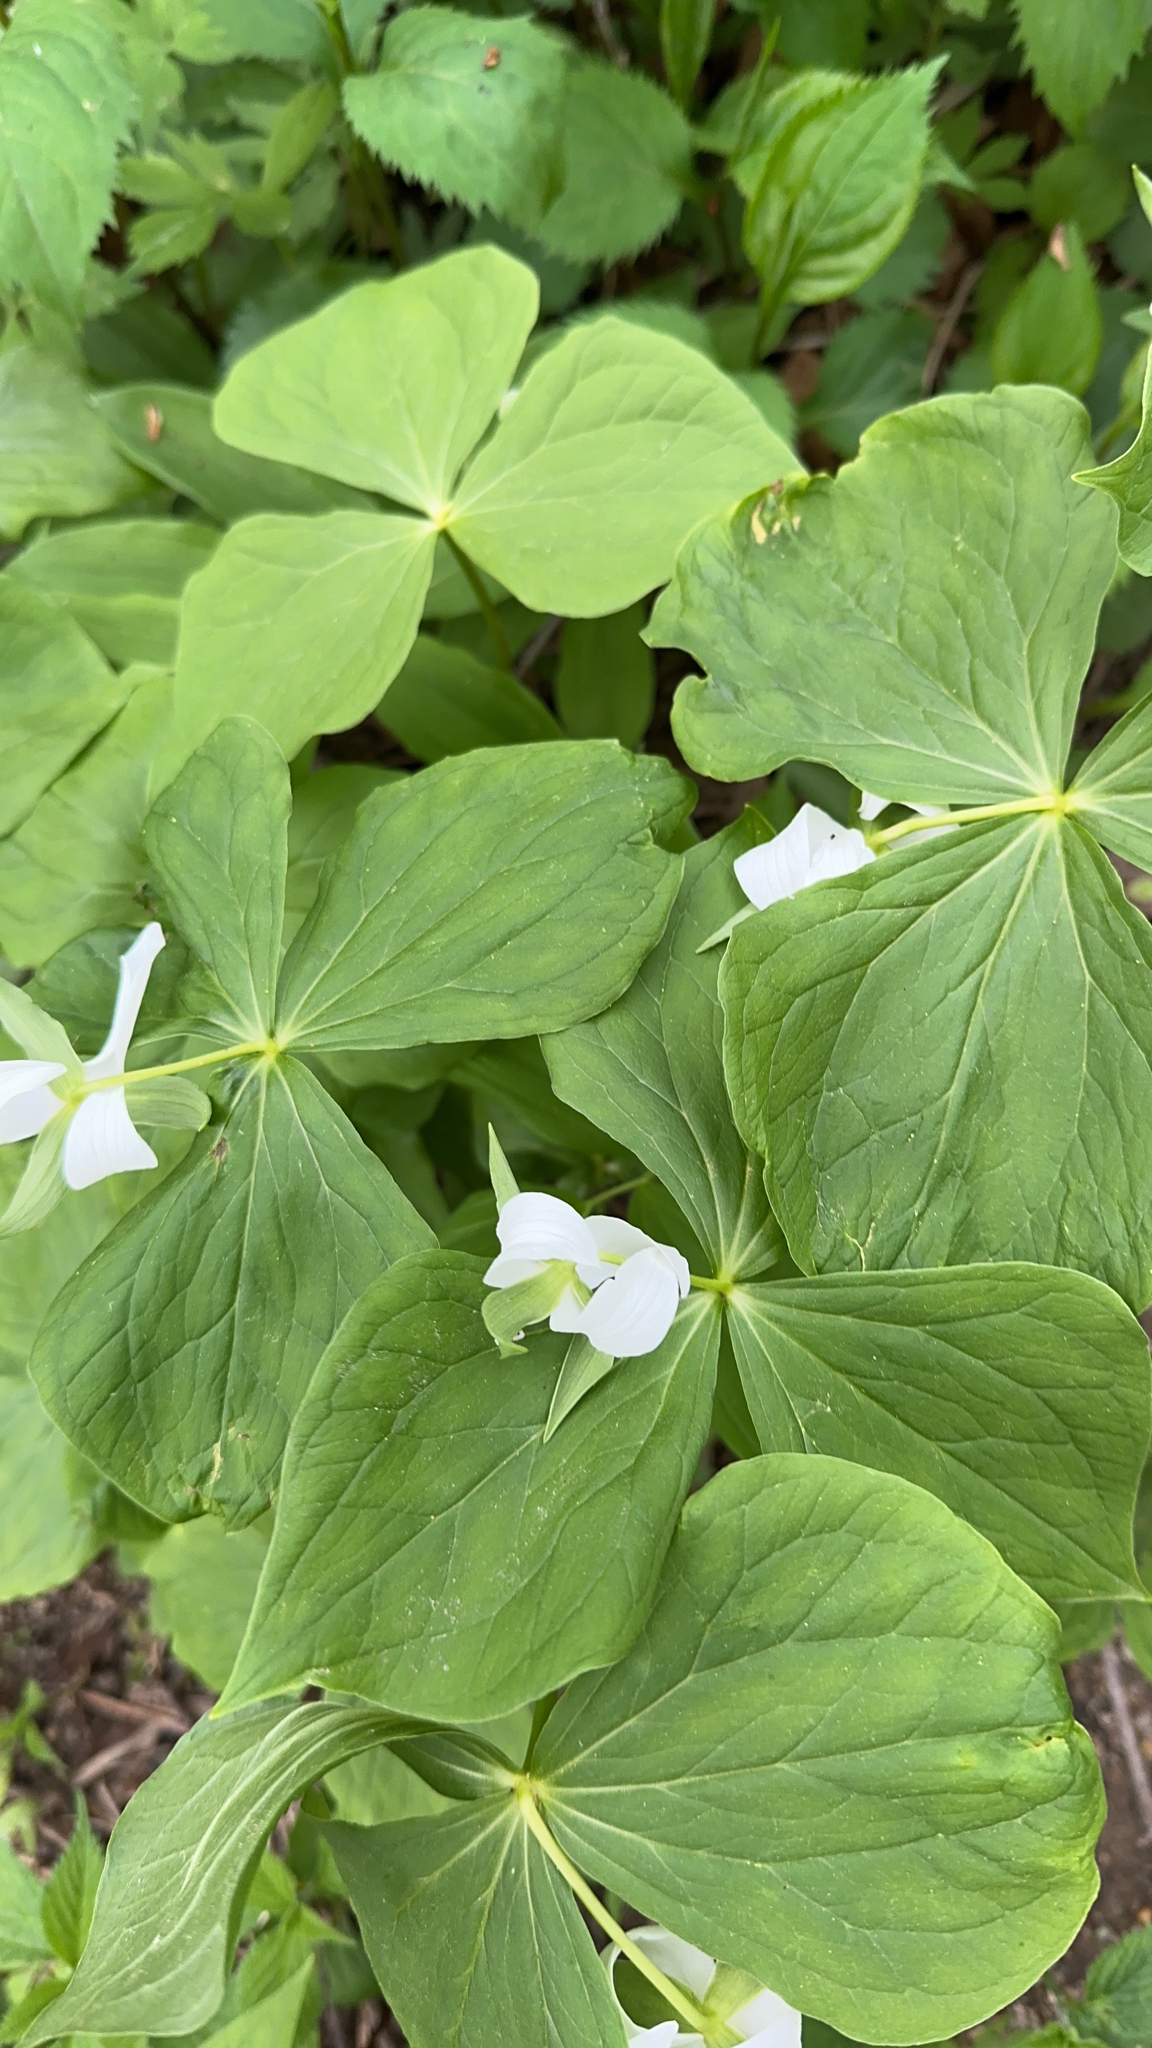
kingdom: Plantae
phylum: Tracheophyta
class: Liliopsida
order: Liliales
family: Melanthiaceae
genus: Trillium
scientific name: Trillium flexipes
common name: Drooping trillium
